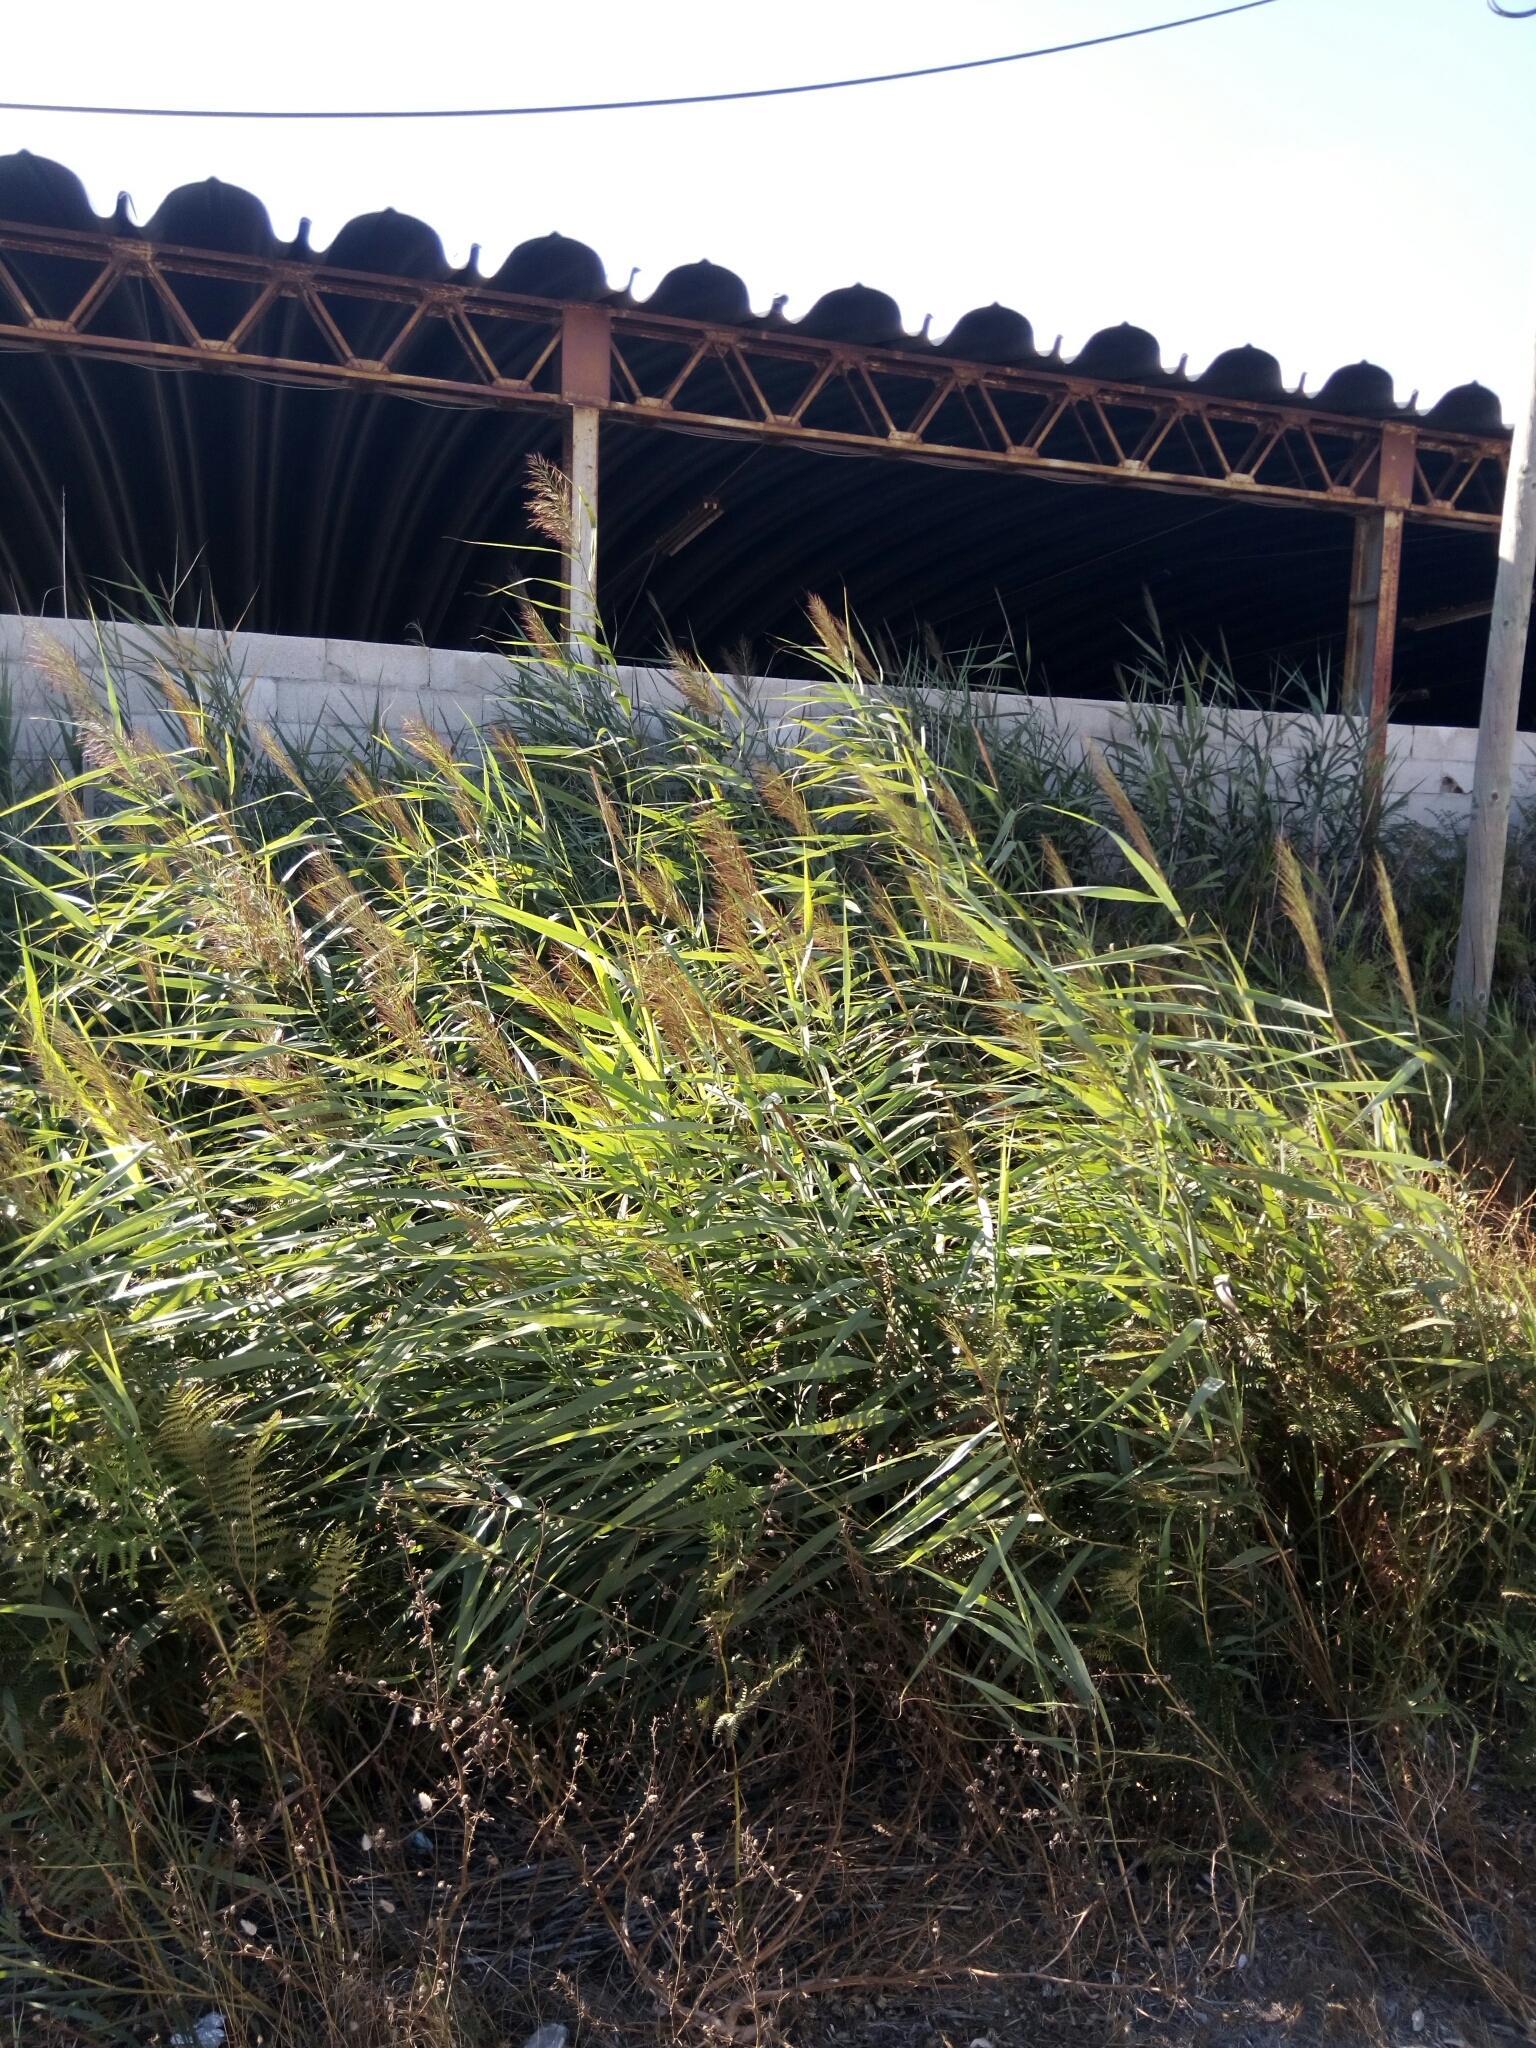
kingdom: Plantae
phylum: Tracheophyta
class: Liliopsida
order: Poales
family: Poaceae
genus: Phragmites
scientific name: Phragmites australis
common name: Common reed
